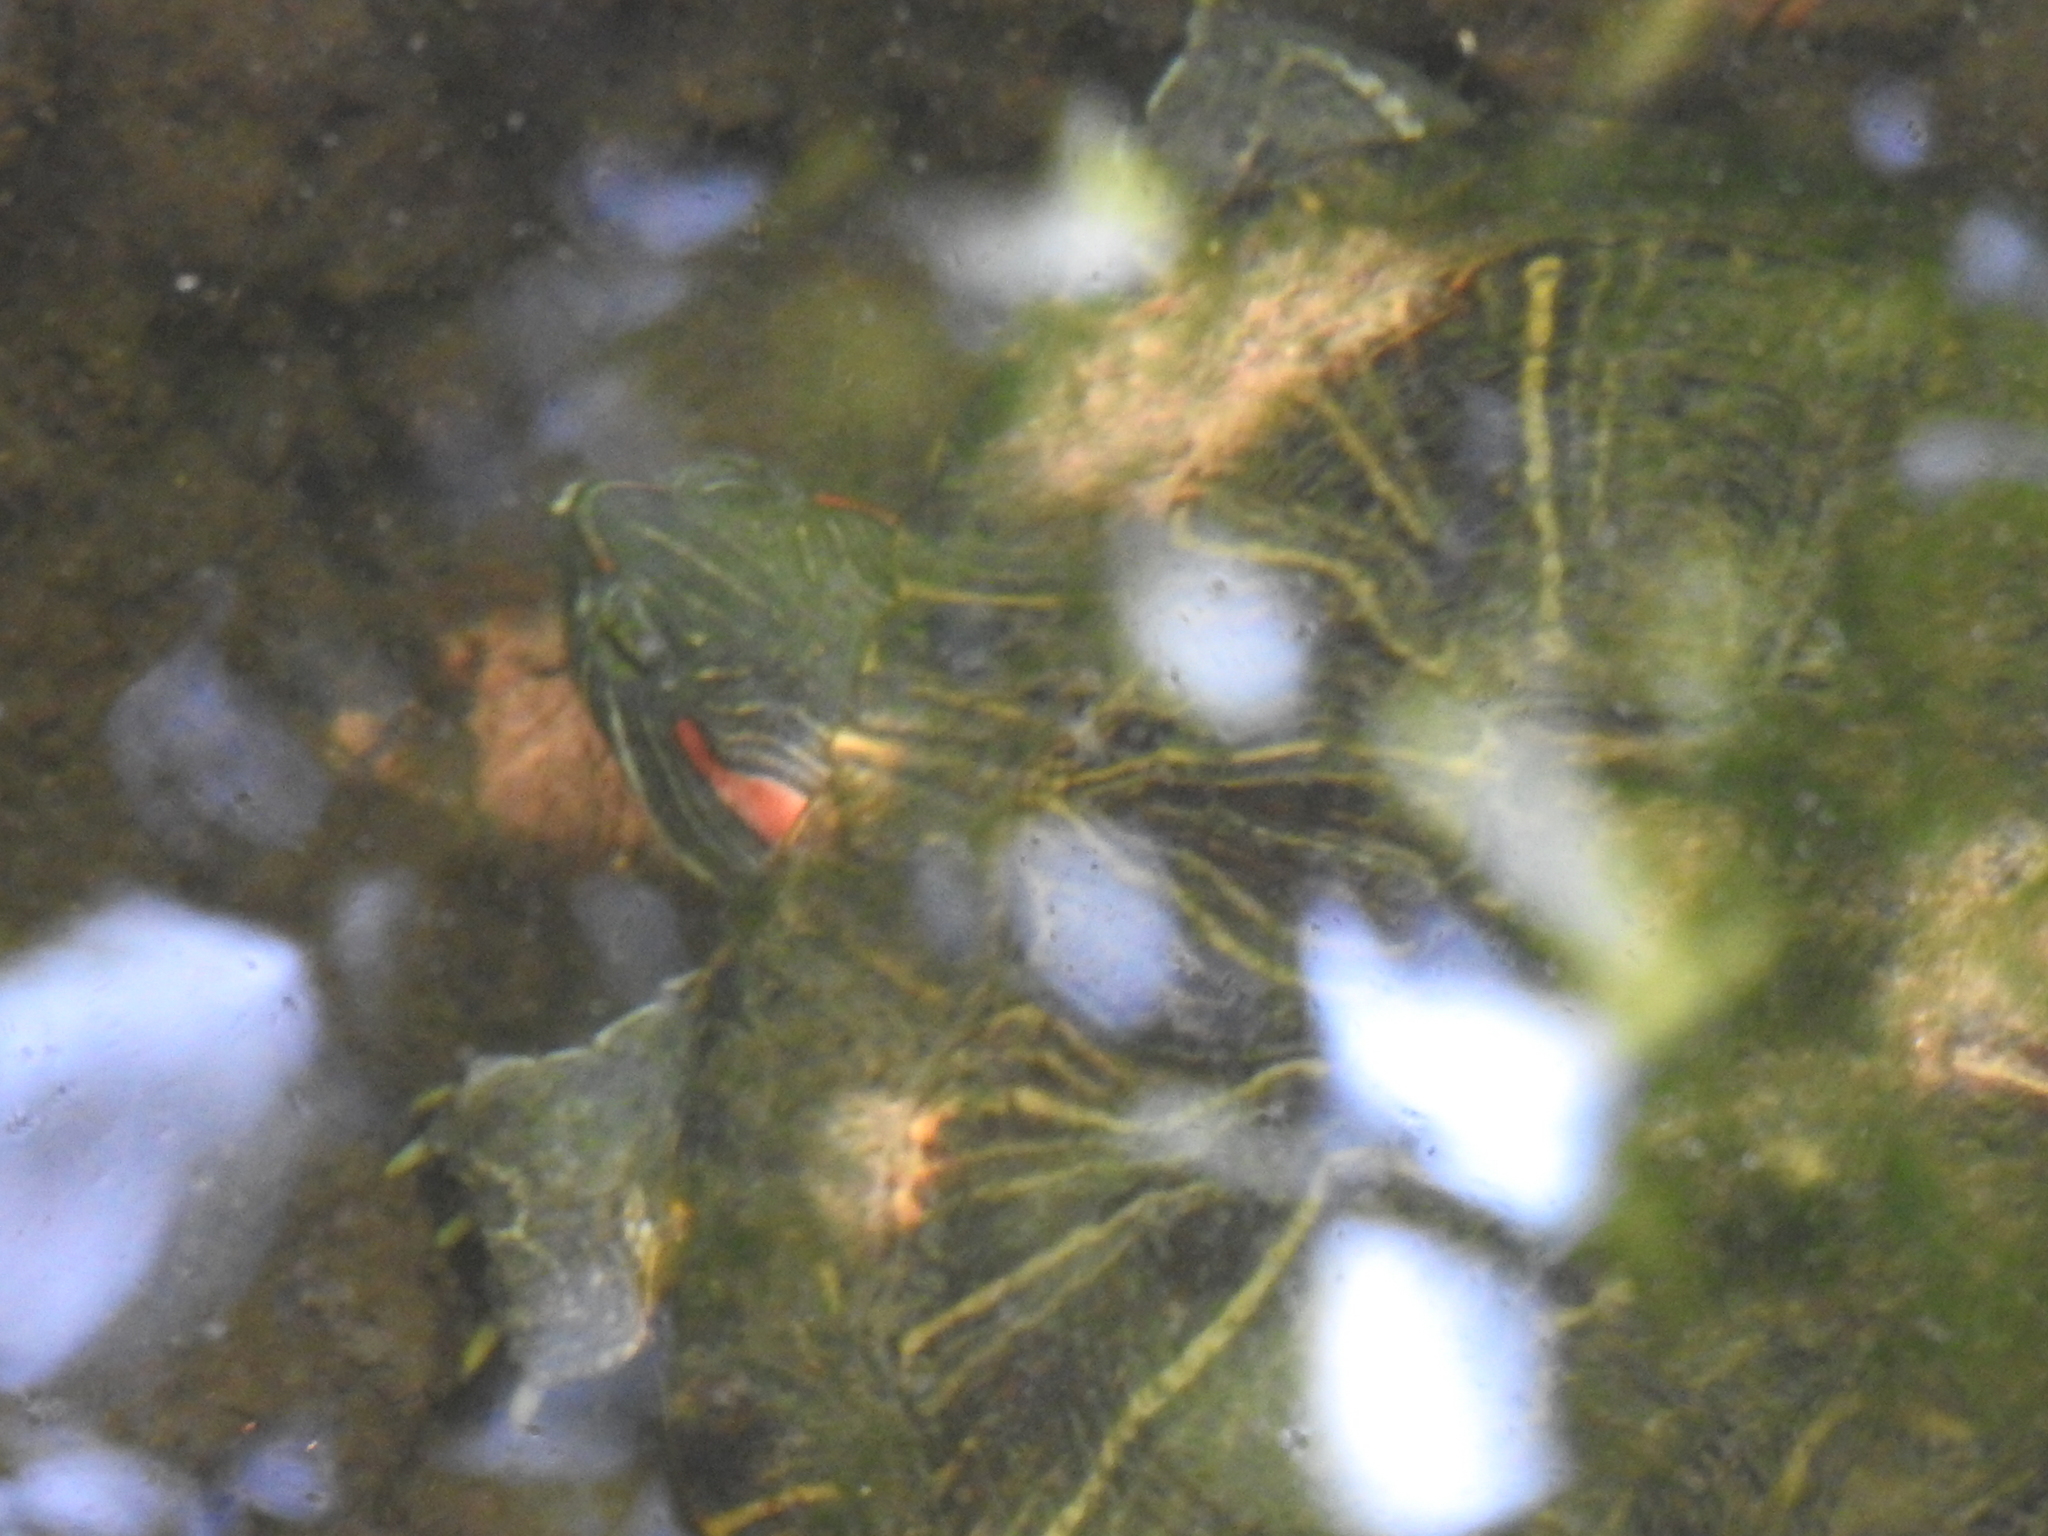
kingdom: Animalia
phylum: Chordata
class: Testudines
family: Emydidae
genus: Trachemys
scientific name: Trachemys scripta
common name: Slider
